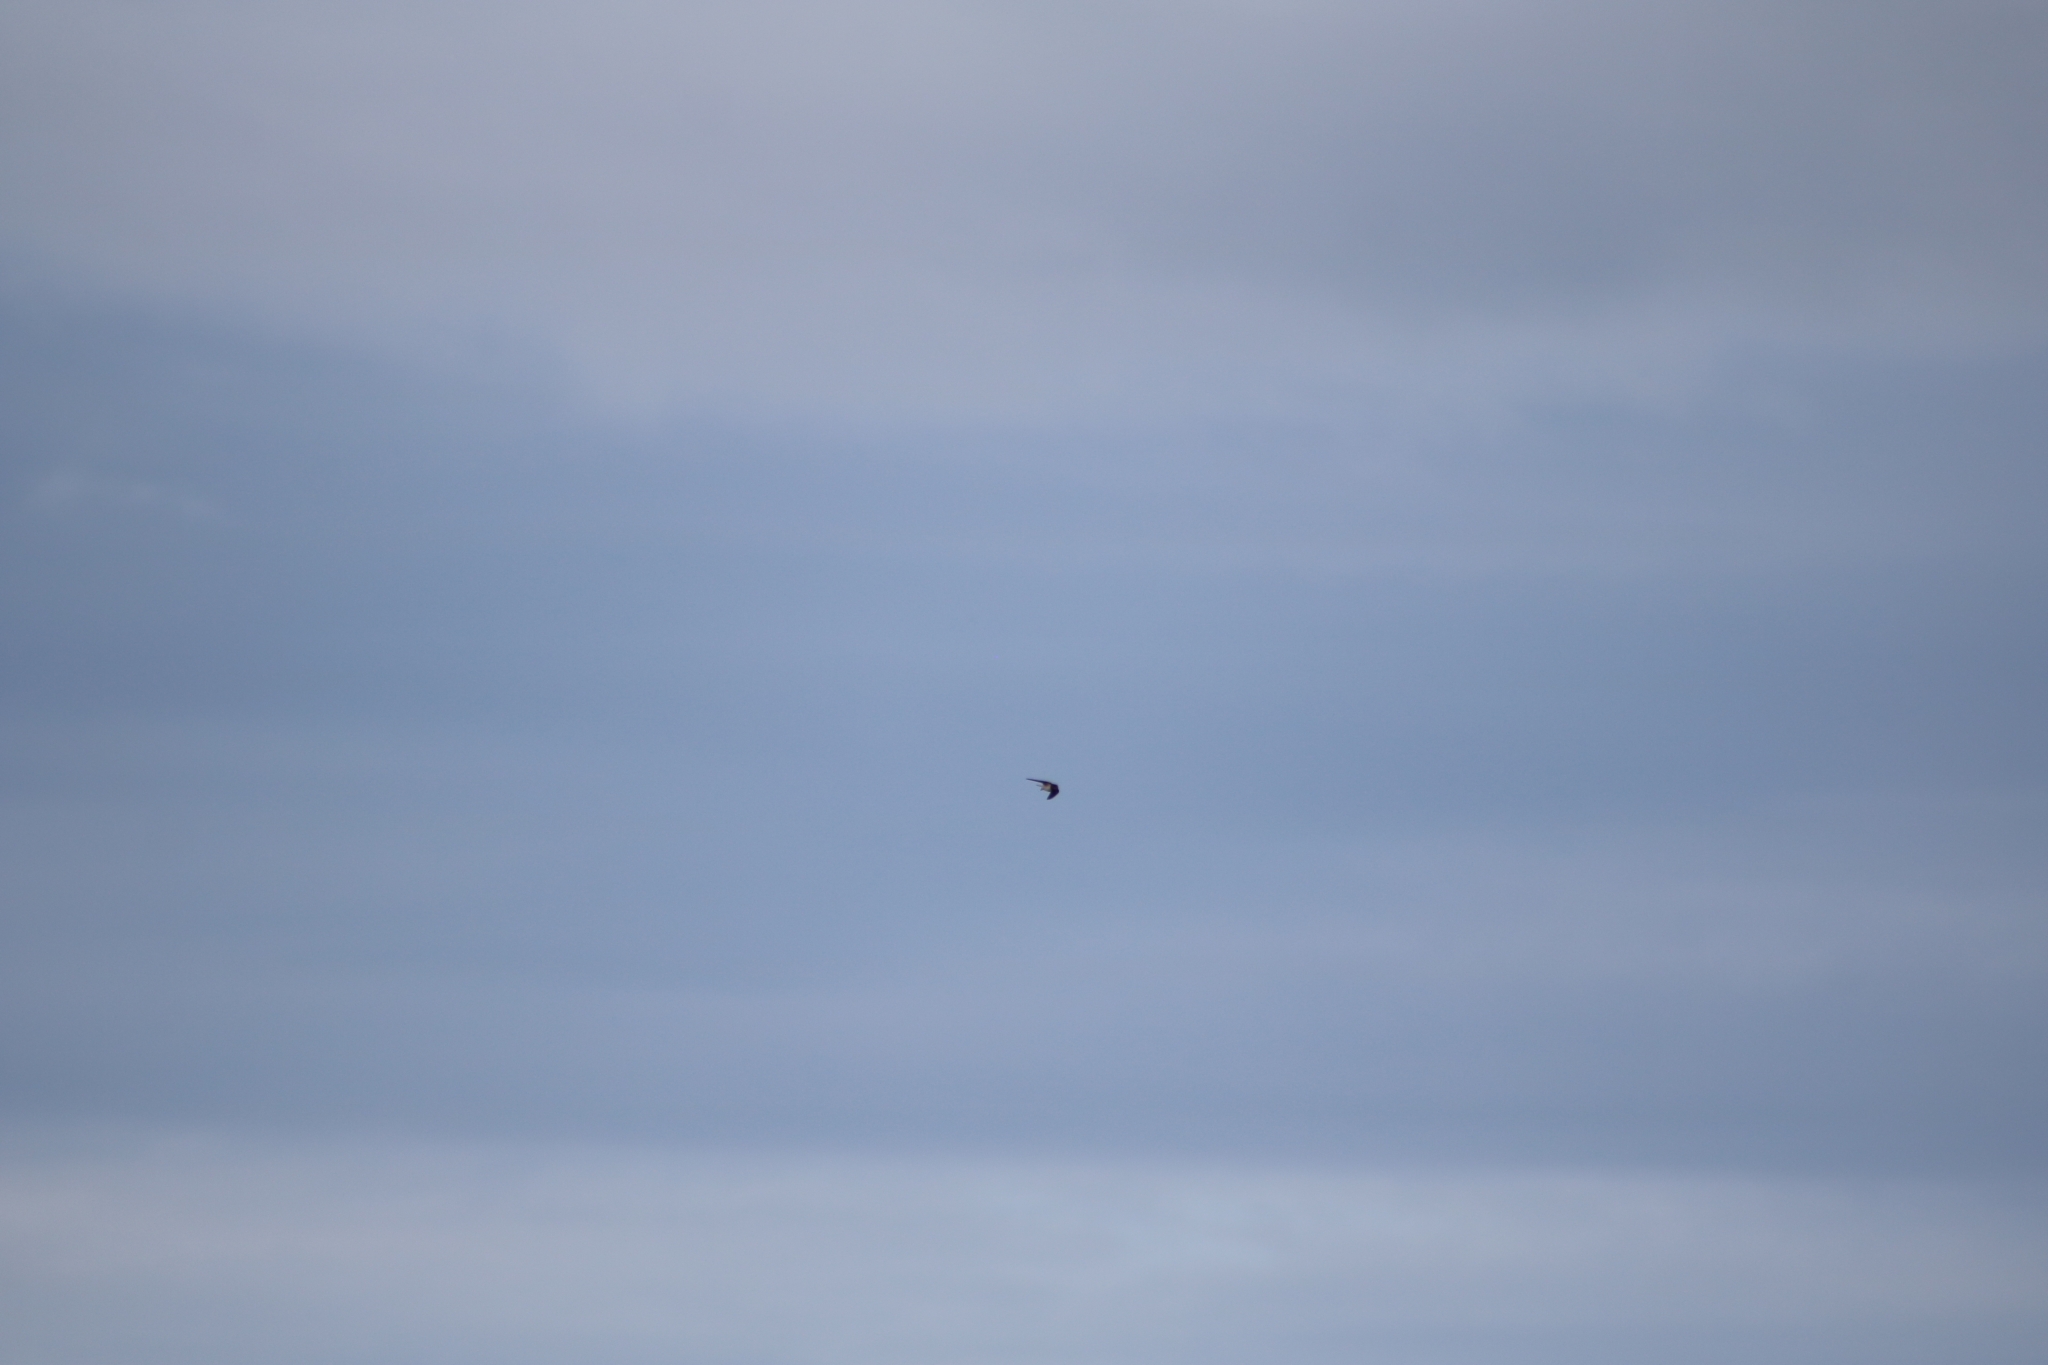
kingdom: Animalia
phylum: Chordata
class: Aves
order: Passeriformes
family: Hirundinidae
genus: Hirundo
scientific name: Hirundo rustica
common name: Barn swallow
